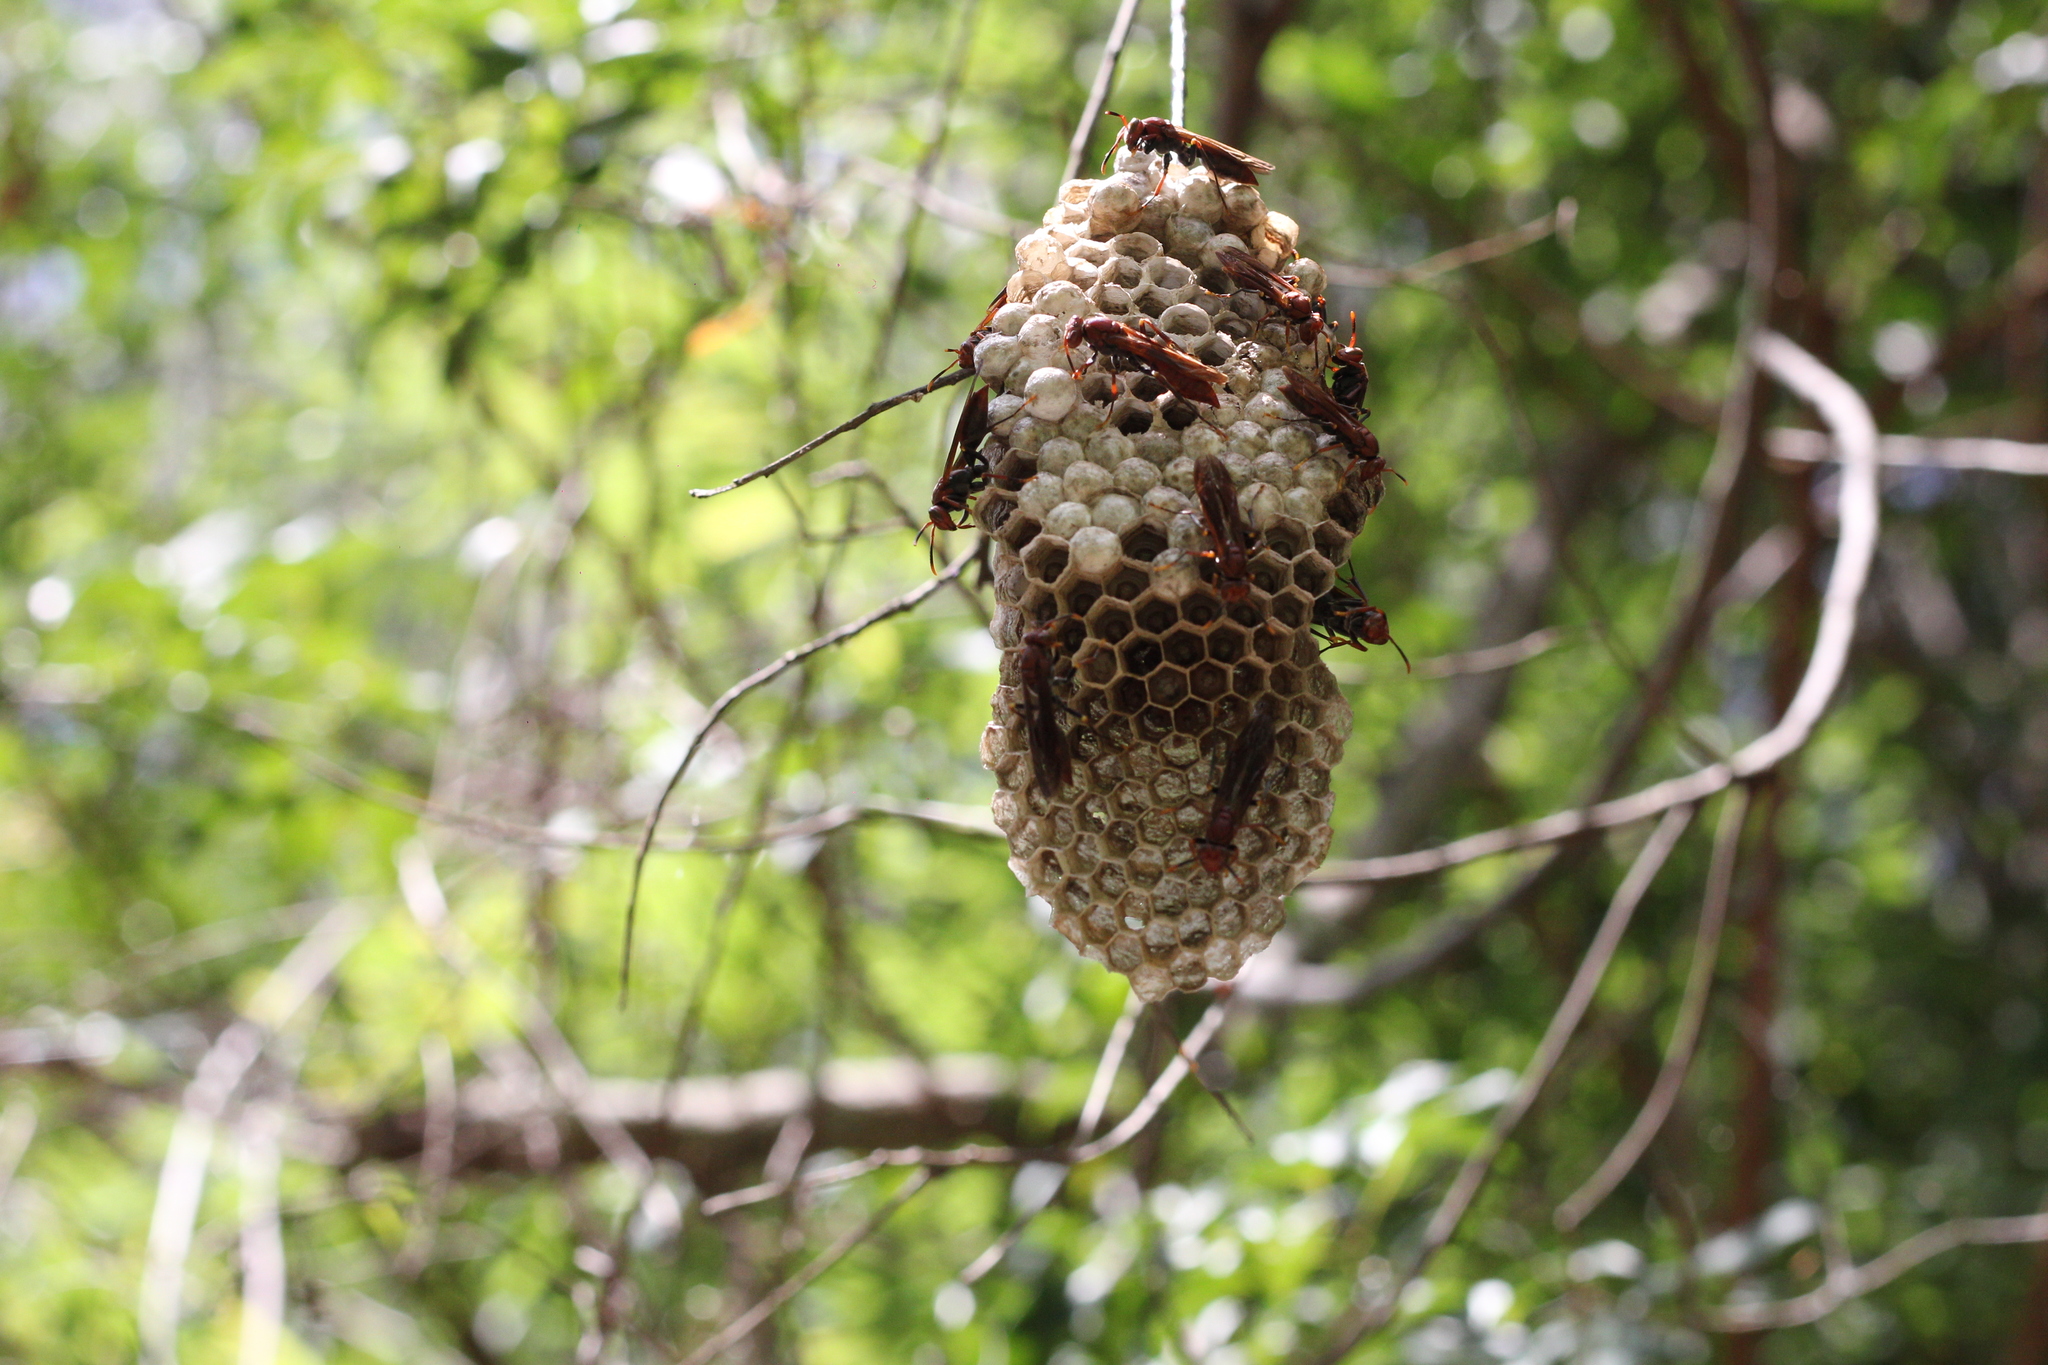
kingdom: Animalia
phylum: Arthropoda
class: Insecta
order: Hymenoptera
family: Pompilidae
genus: Aphanilopterus
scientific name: Aphanilopterus
